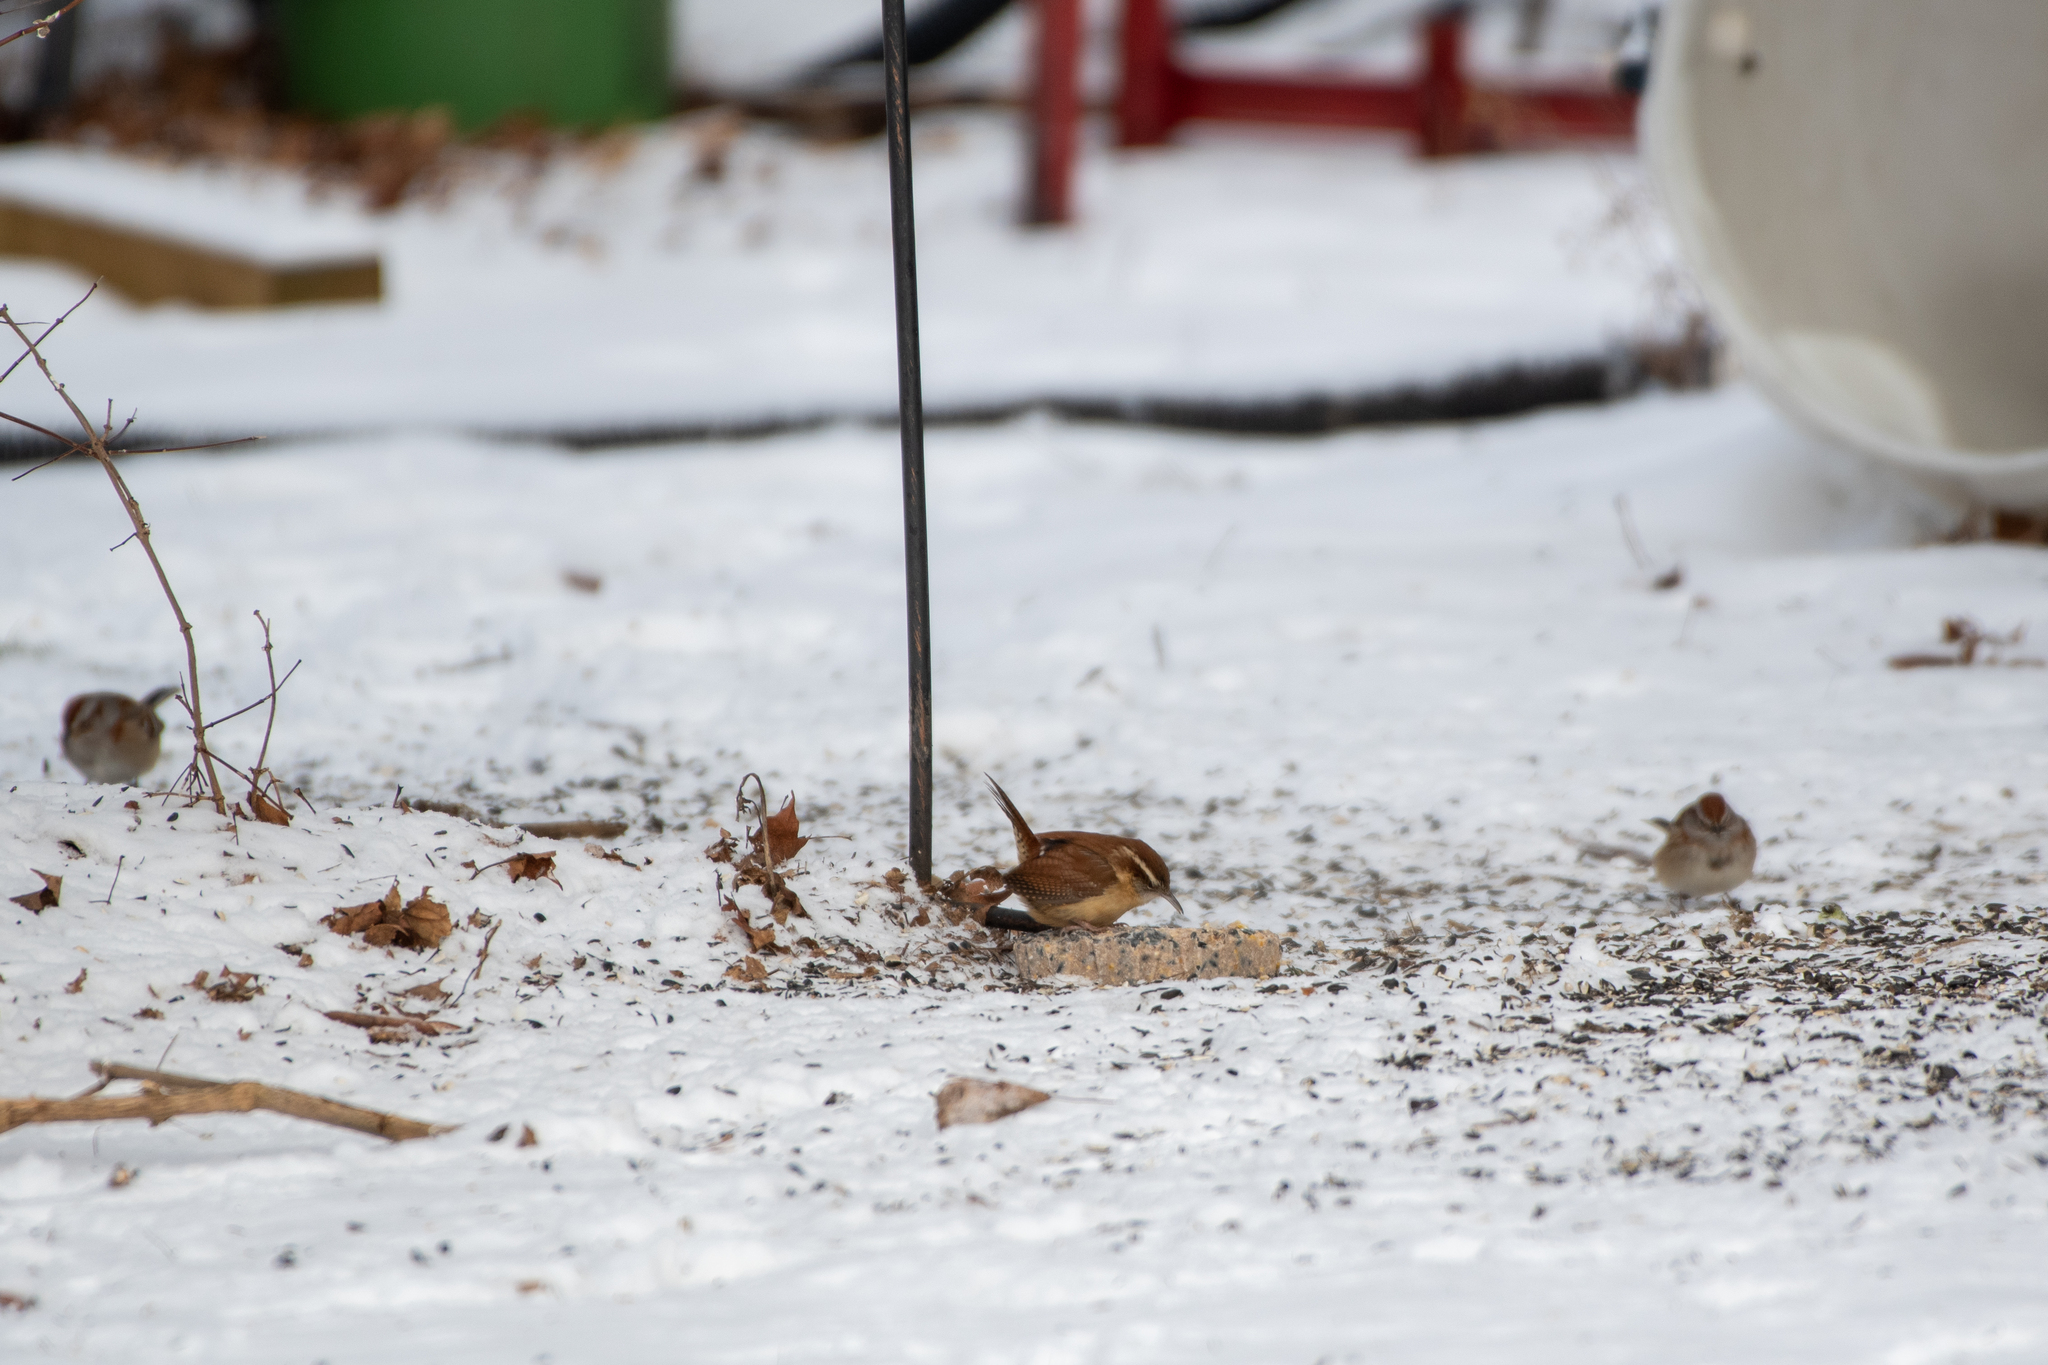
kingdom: Animalia
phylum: Chordata
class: Aves
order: Passeriformes
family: Troglodytidae
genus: Thryothorus
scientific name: Thryothorus ludovicianus
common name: Carolina wren
